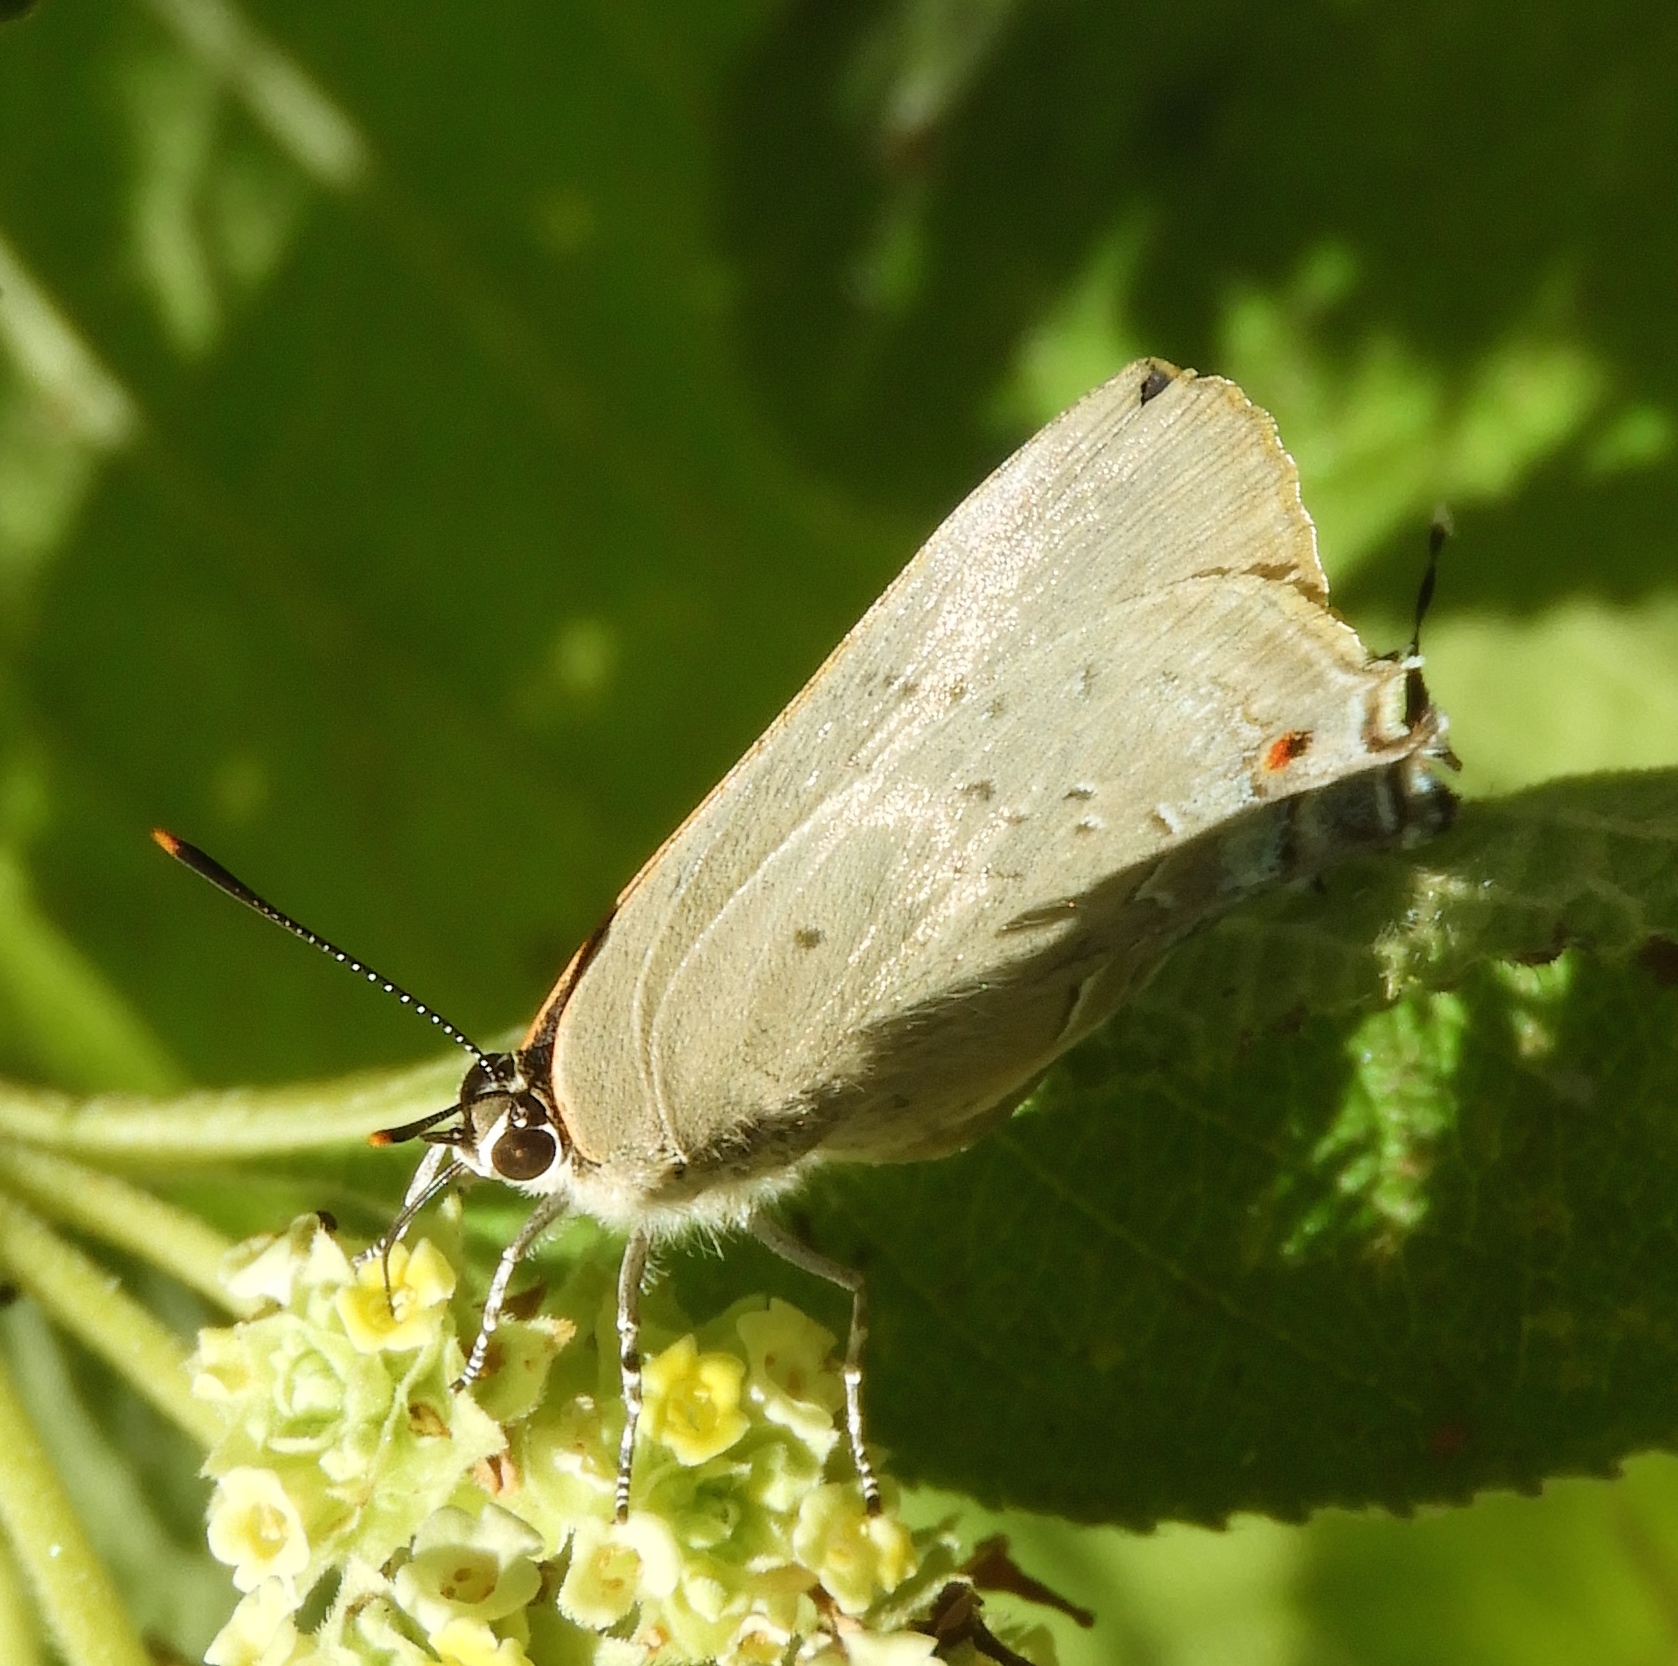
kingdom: Animalia
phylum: Arthropoda
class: Insecta
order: Lepidoptera
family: Lycaenidae
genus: Parrhasius
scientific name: Parrhasius polibetes
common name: Black-spot hairstreak
